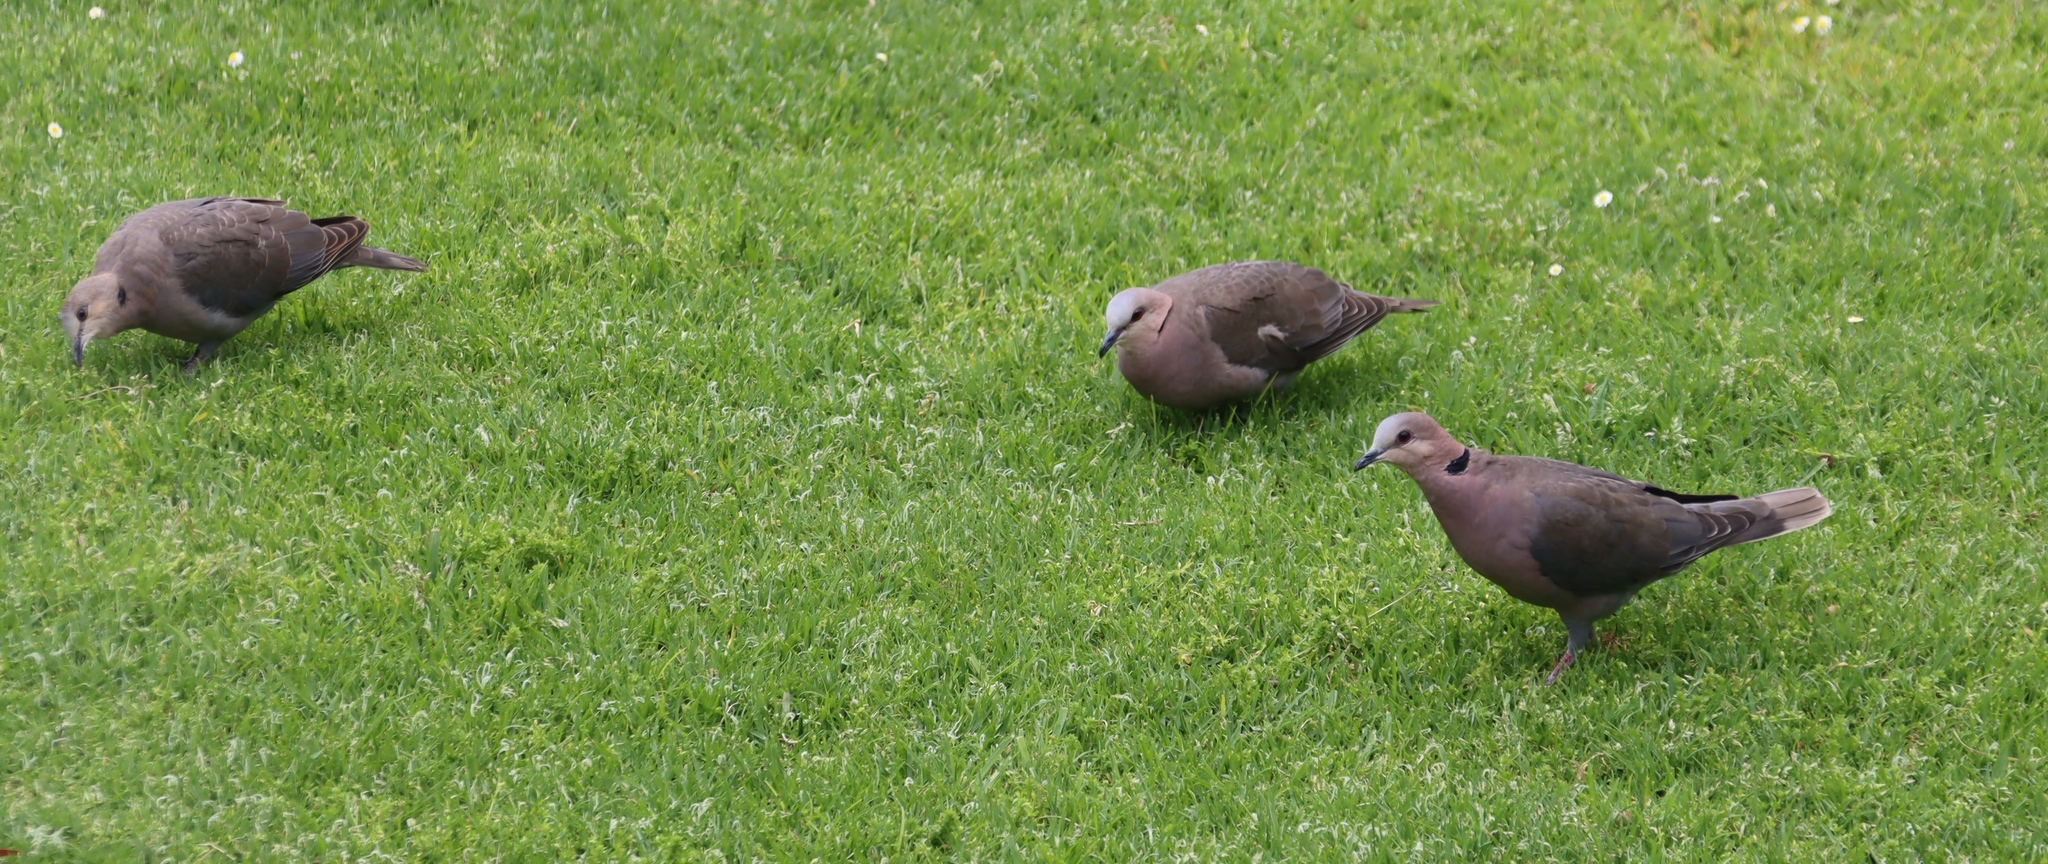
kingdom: Animalia
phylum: Chordata
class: Aves
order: Columbiformes
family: Columbidae
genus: Streptopelia
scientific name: Streptopelia semitorquata
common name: Red-eyed dove
